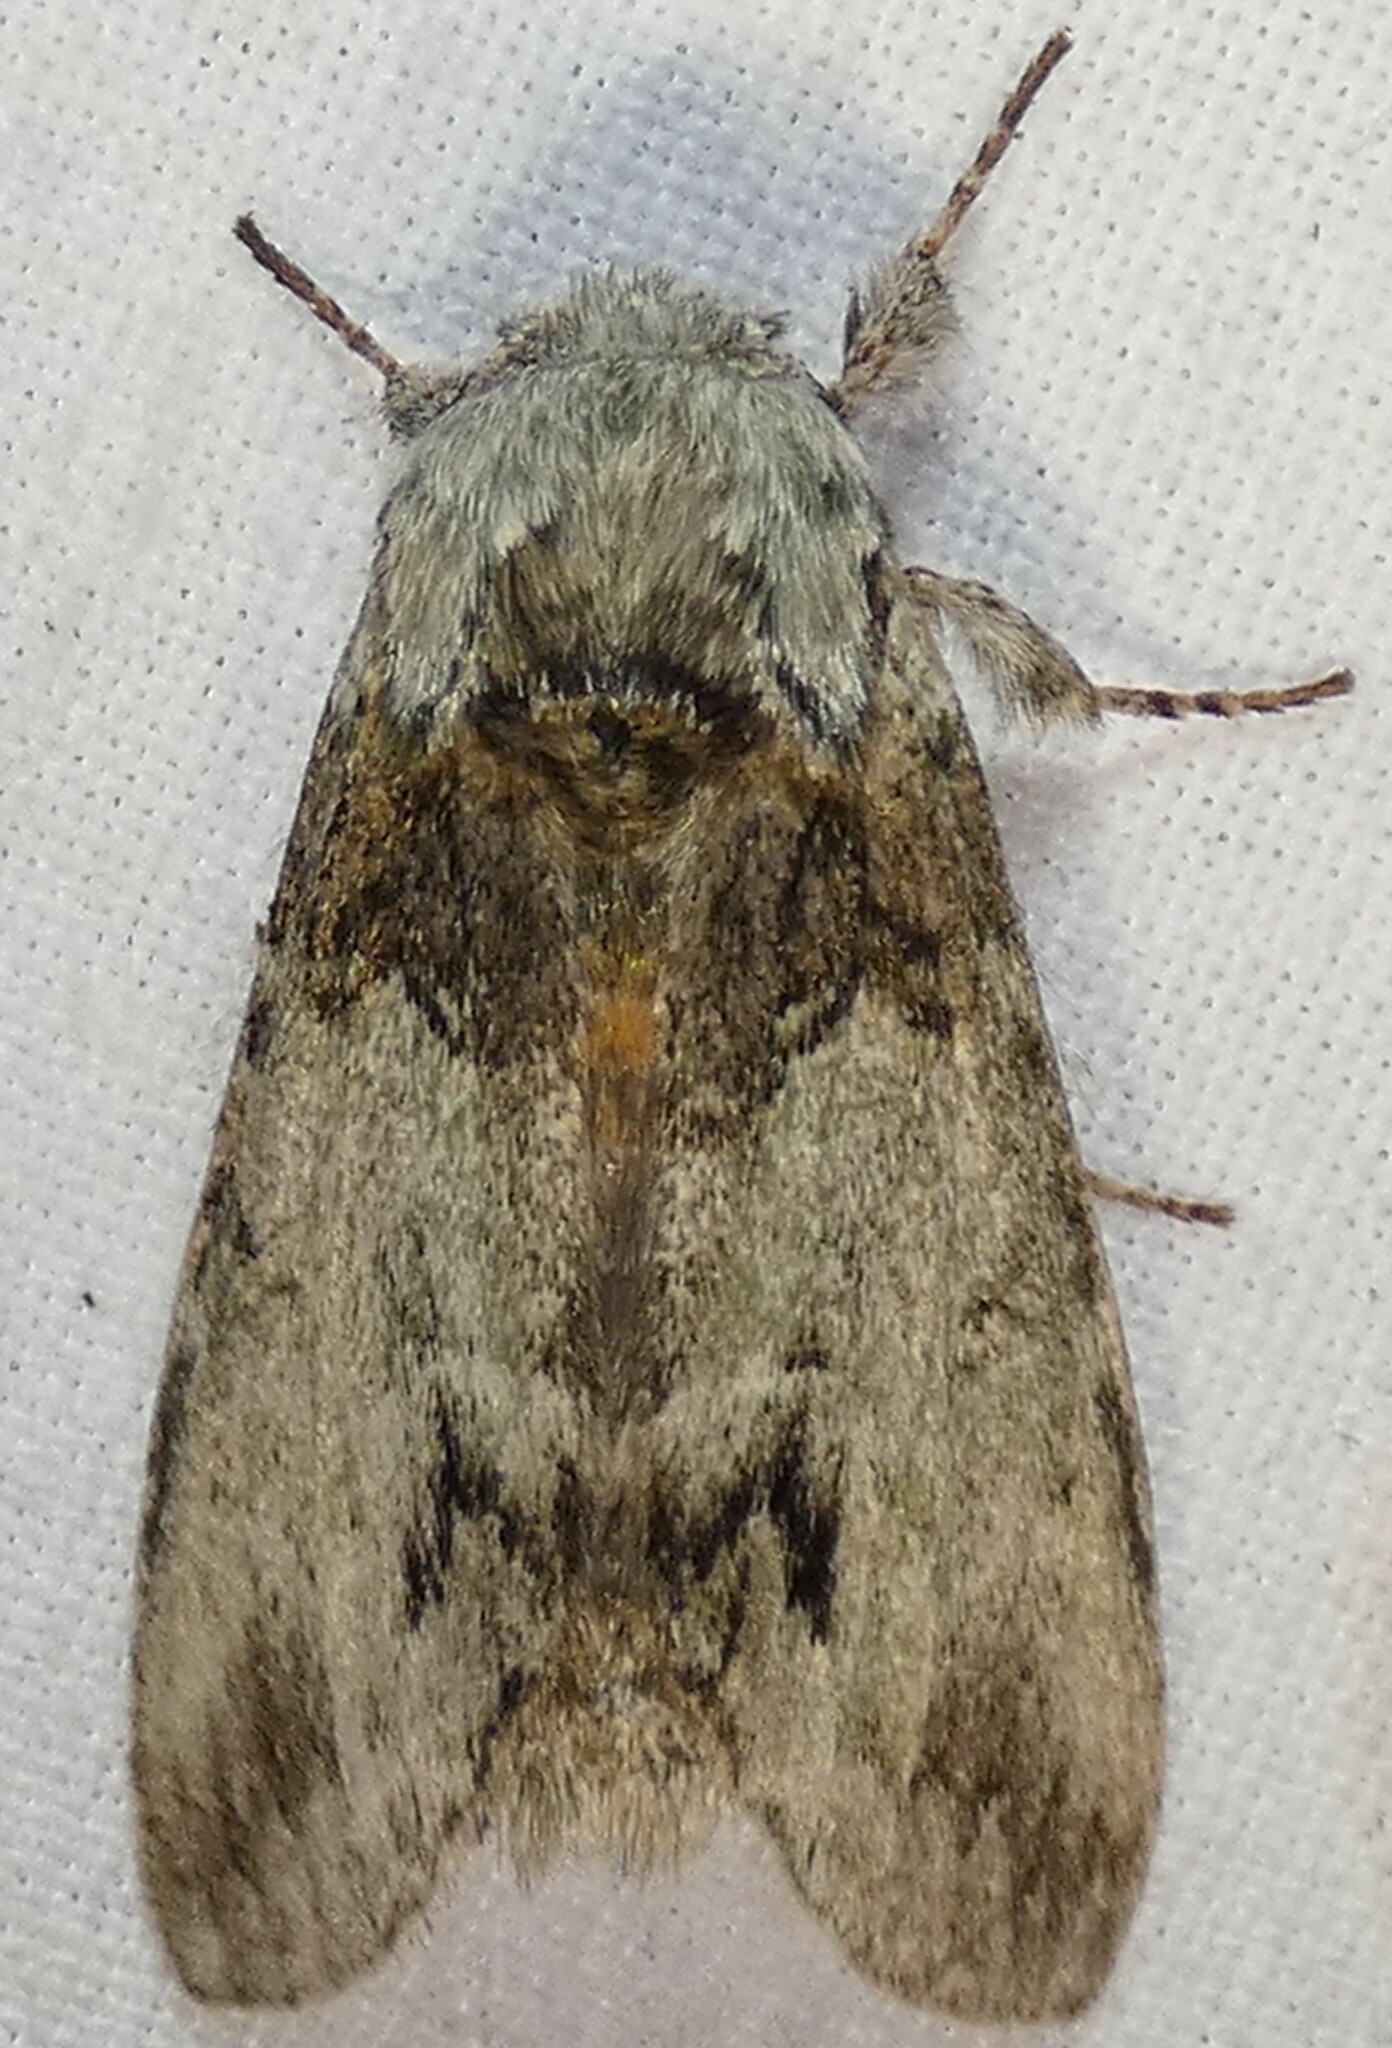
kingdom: Animalia
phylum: Arthropoda
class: Insecta
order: Lepidoptera
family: Notodontidae
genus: Macrurocampa
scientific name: Macrurocampa marthesia
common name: Mottled prominent
